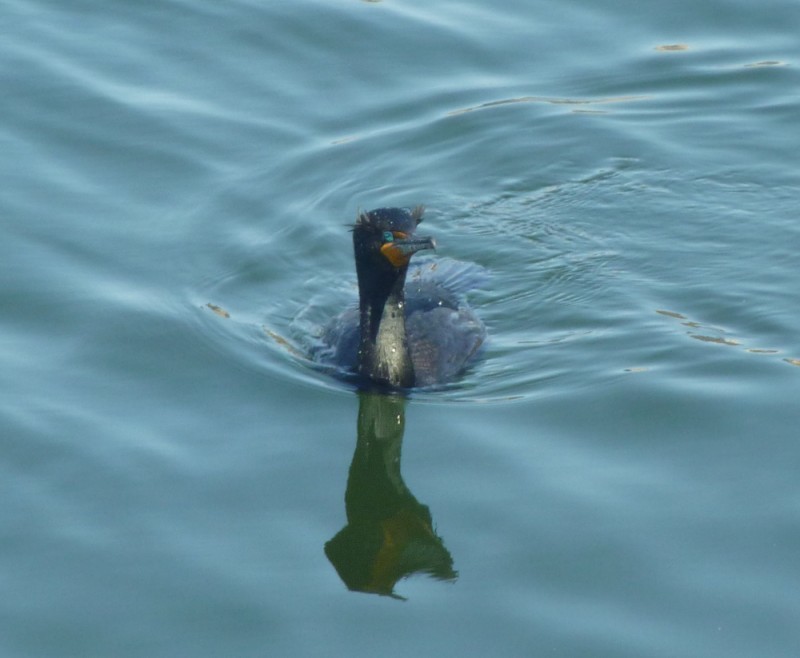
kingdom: Animalia
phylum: Chordata
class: Aves
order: Suliformes
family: Phalacrocoracidae
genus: Phalacrocorax
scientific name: Phalacrocorax auritus
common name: Double-crested cormorant
